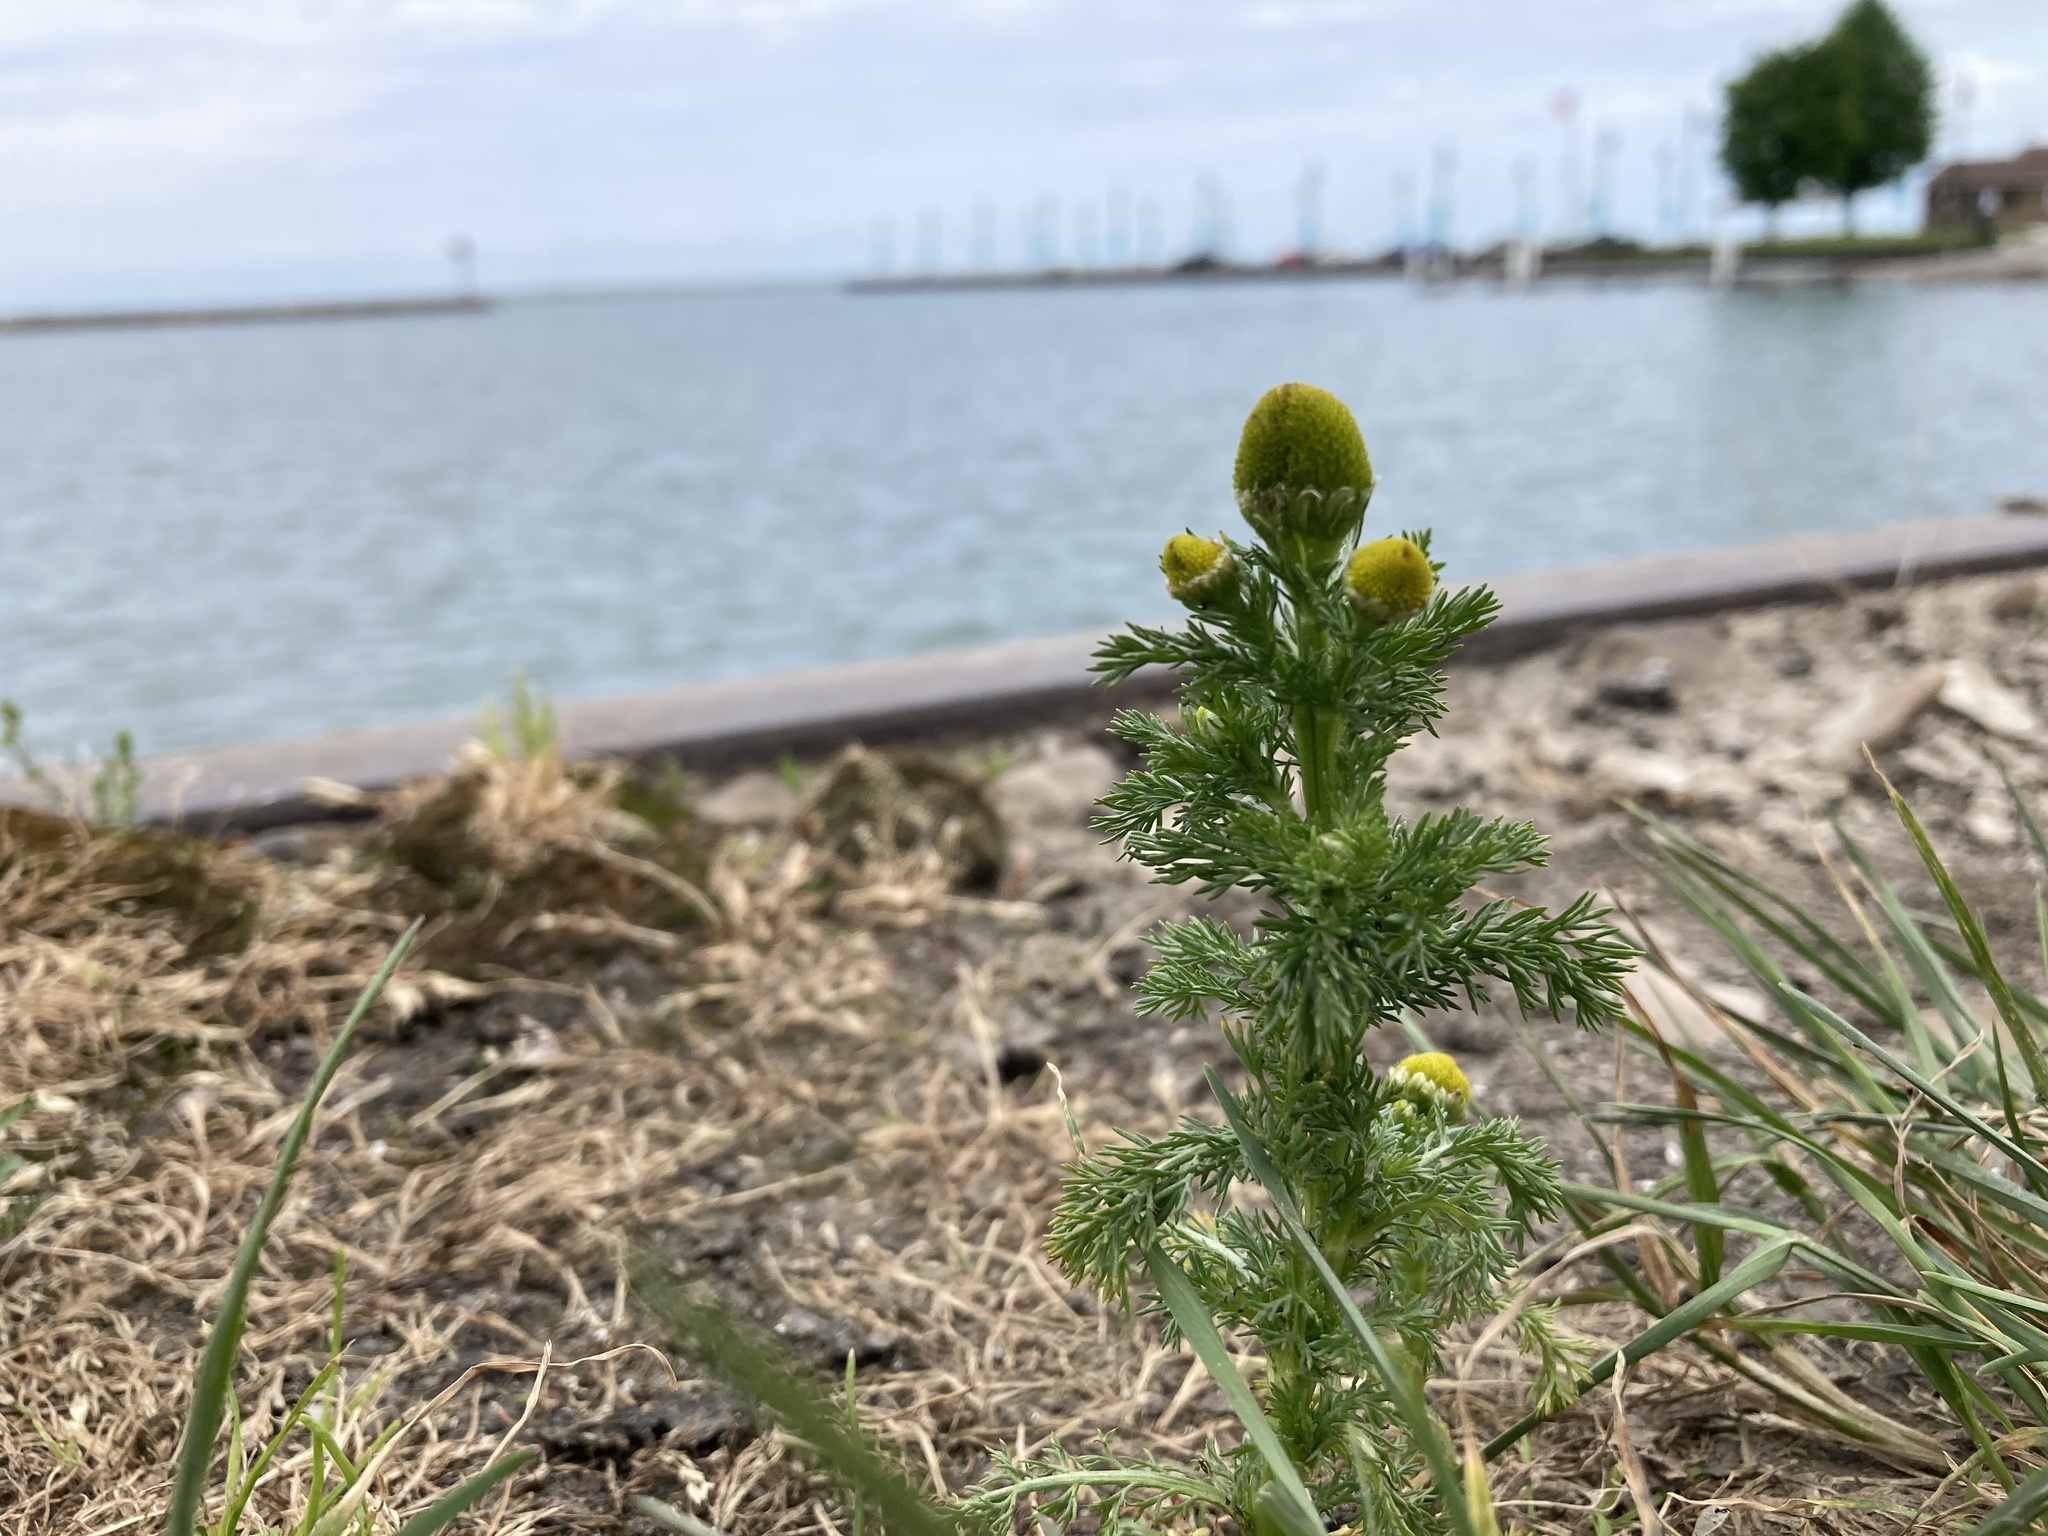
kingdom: Plantae
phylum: Tracheophyta
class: Magnoliopsida
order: Asterales
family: Asteraceae
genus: Matricaria
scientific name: Matricaria discoidea
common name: Disc mayweed
